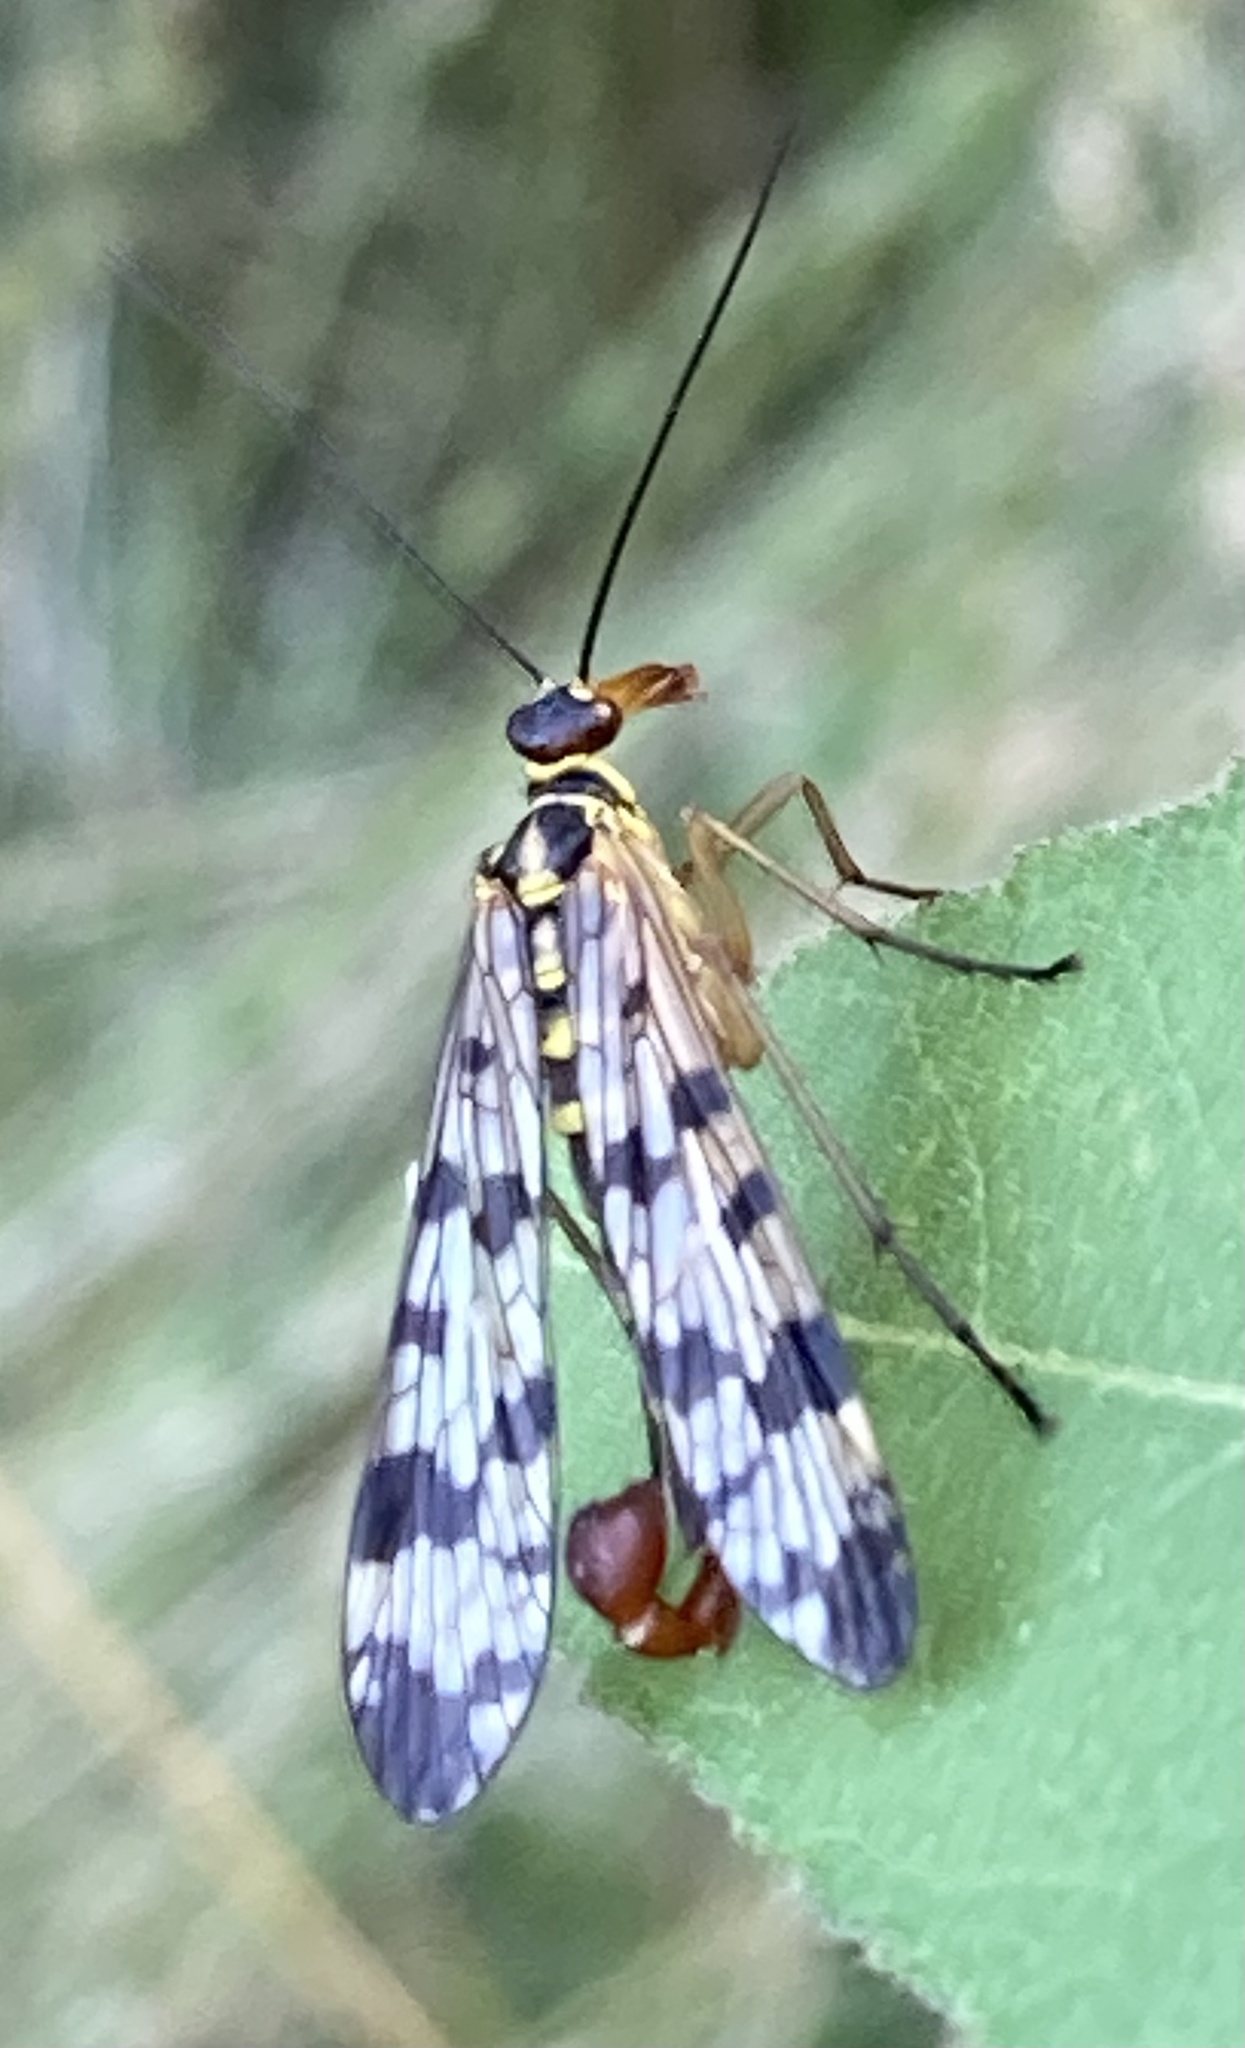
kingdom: Animalia
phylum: Arthropoda
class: Insecta
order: Mecoptera
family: Panorpidae
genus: Panorpa
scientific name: Panorpa communis
